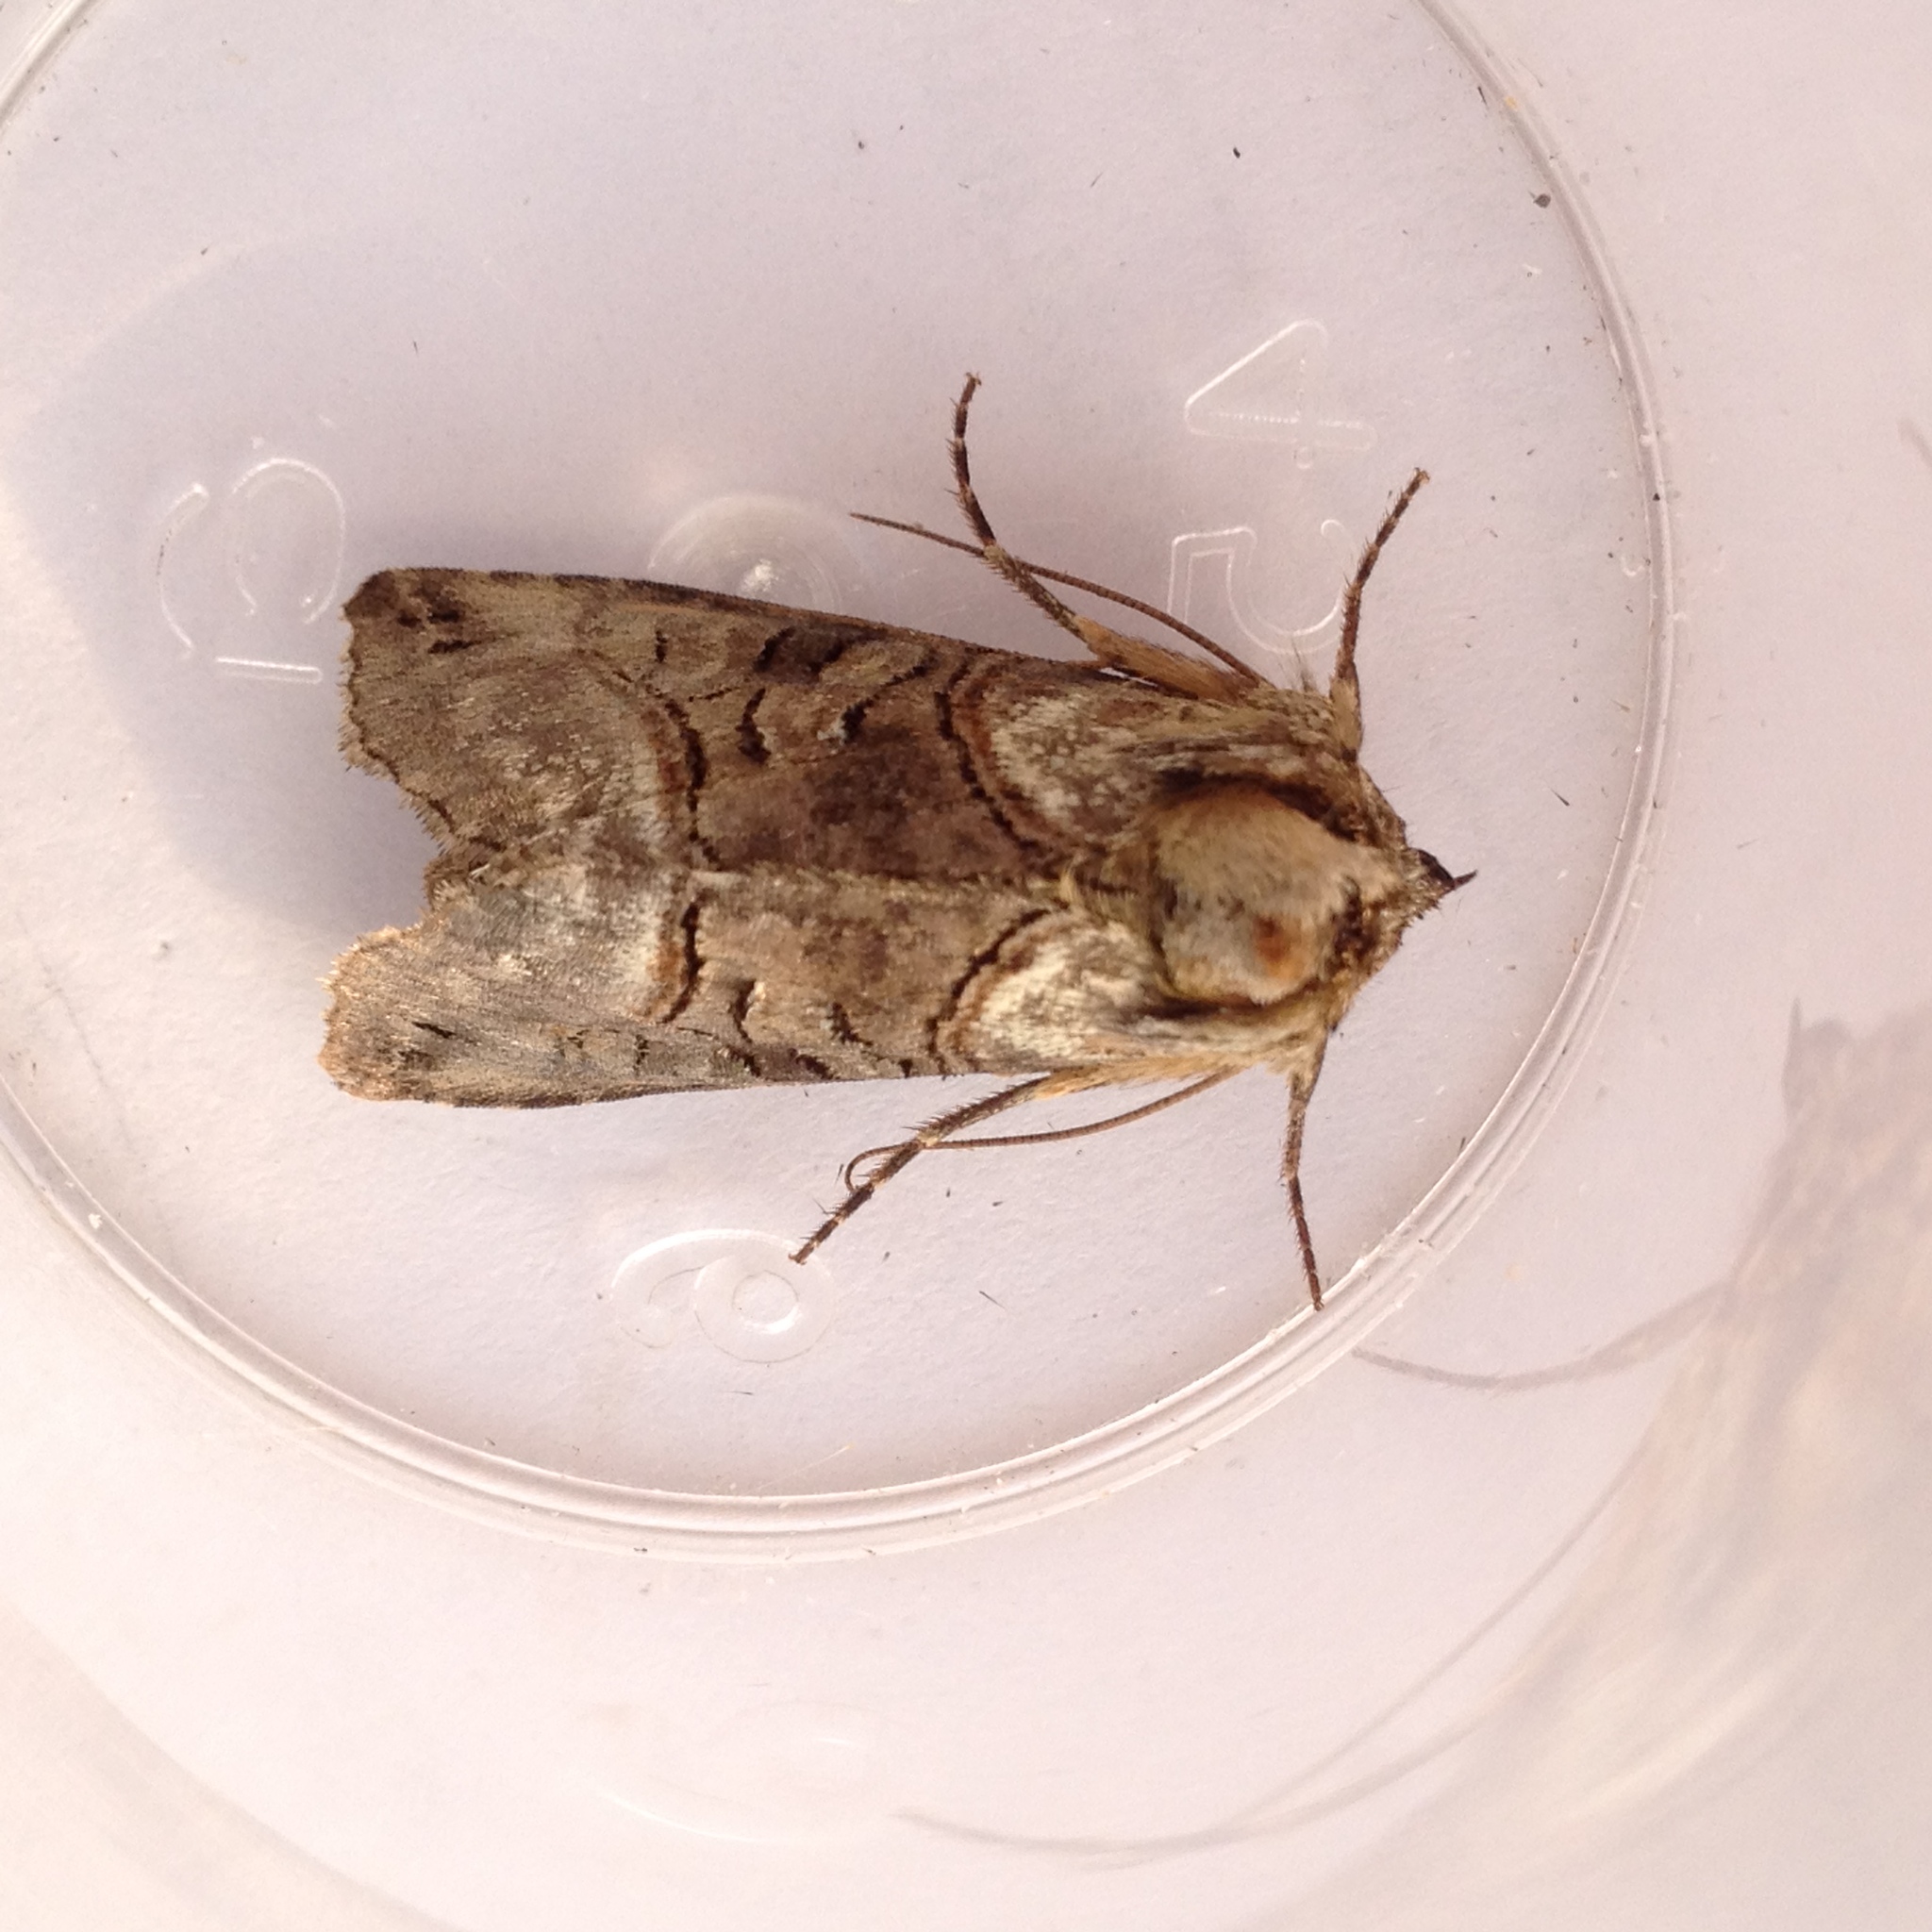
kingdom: Animalia
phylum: Arthropoda
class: Insecta
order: Lepidoptera
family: Noctuidae
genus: Abrostola
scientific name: Abrostola tripartita
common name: Spectacle
